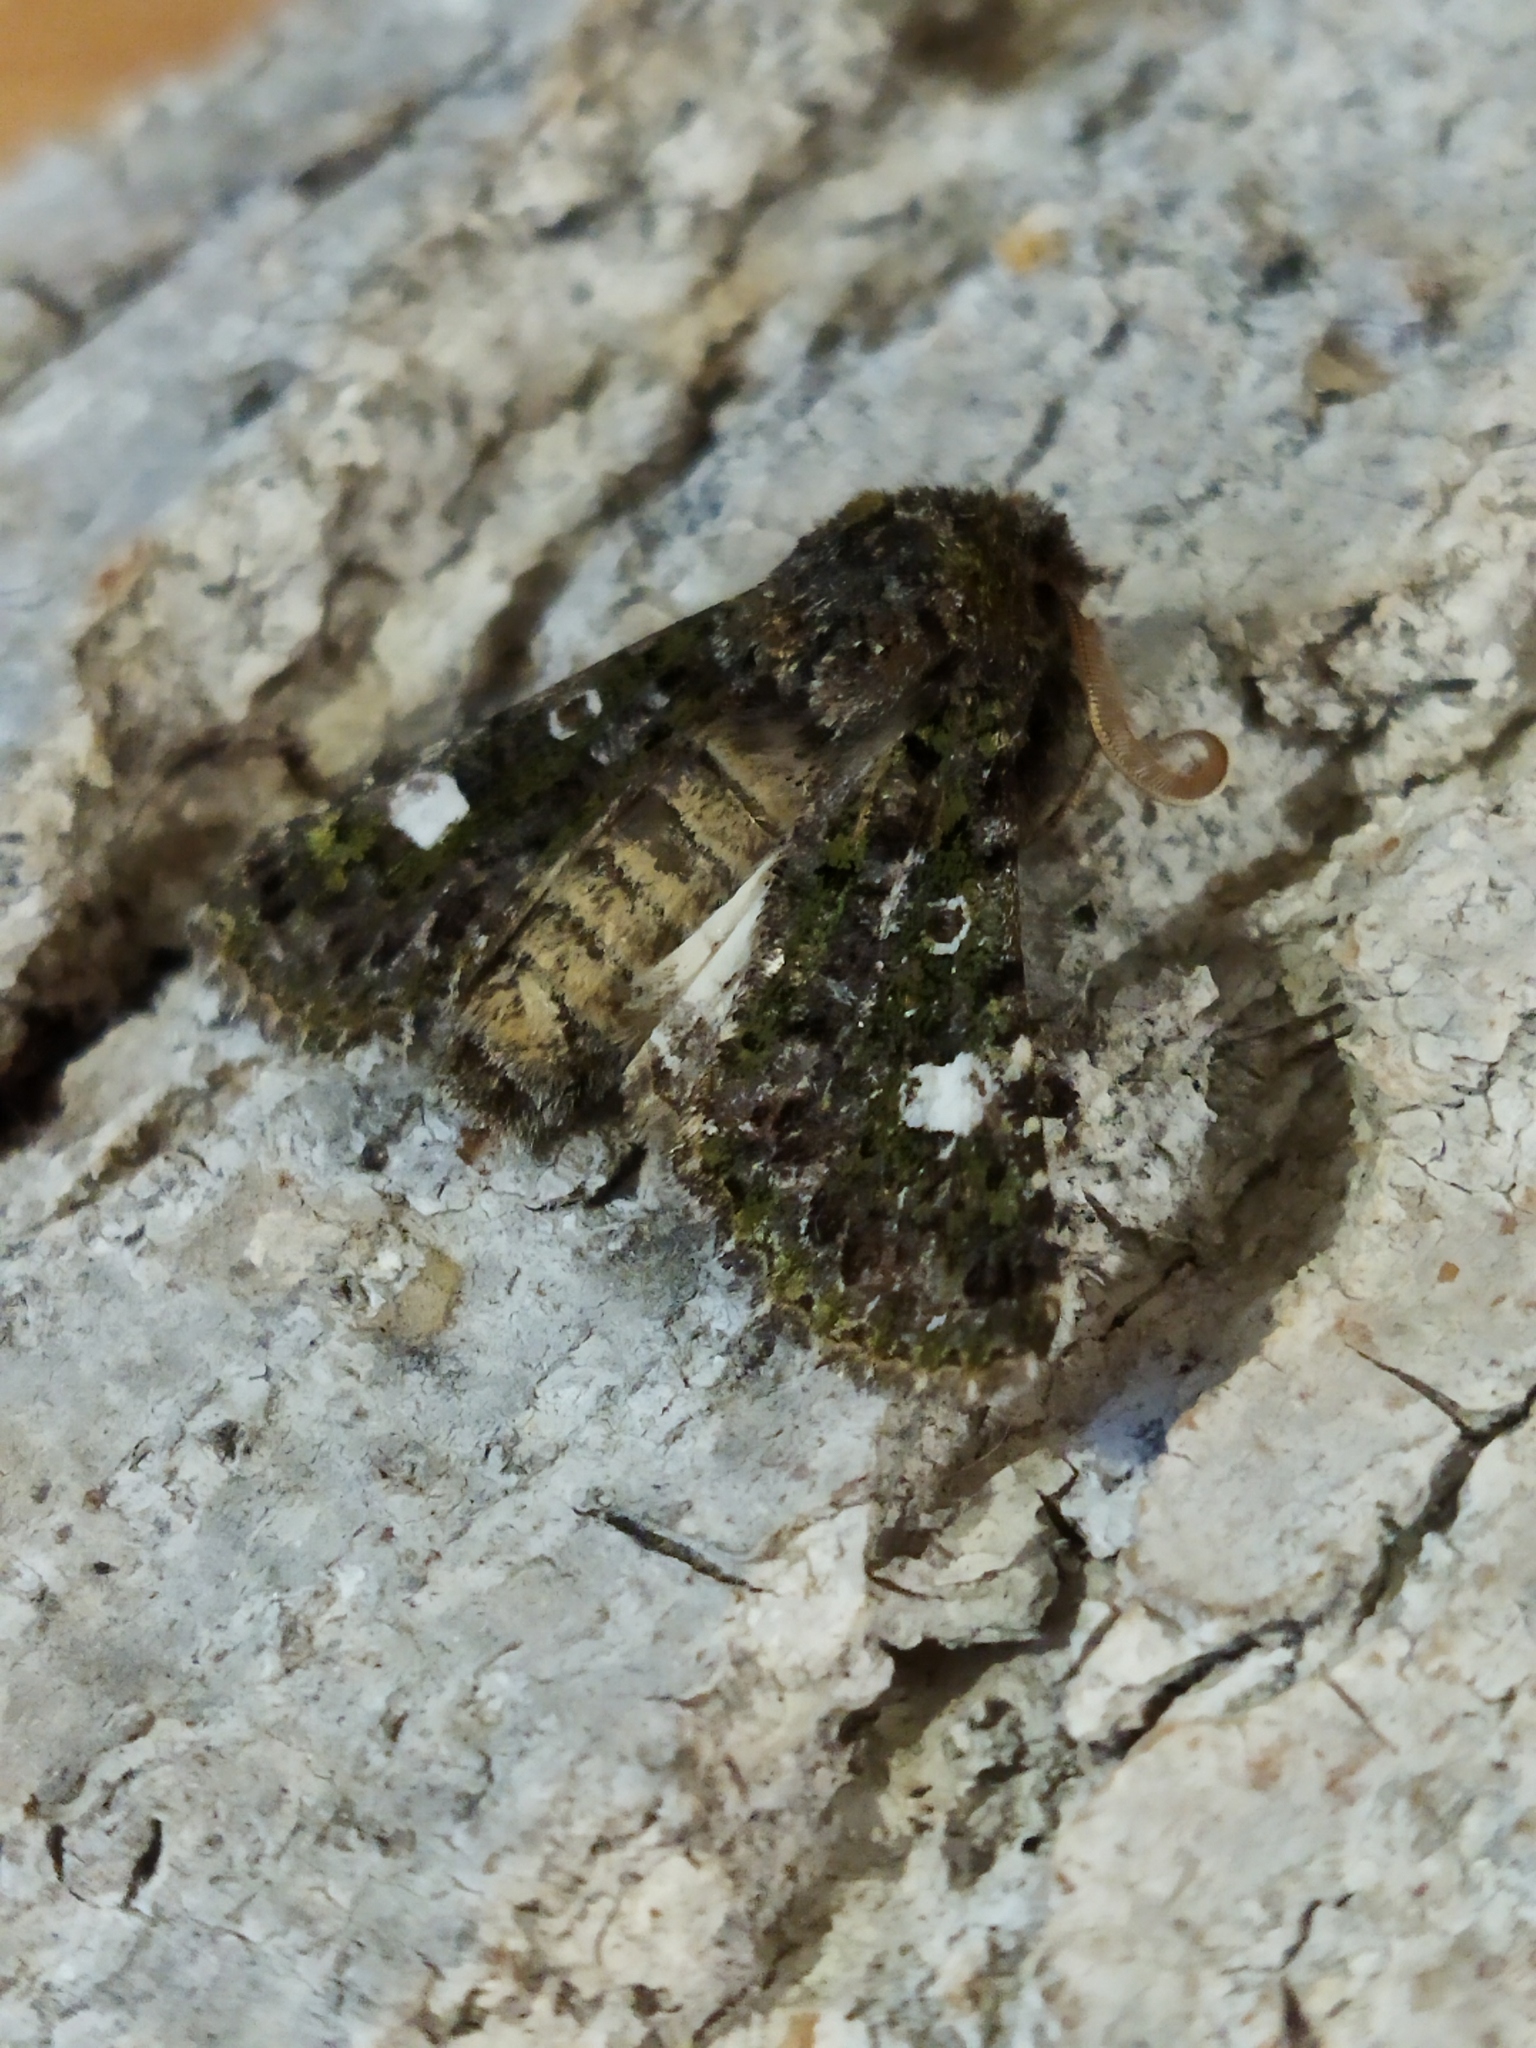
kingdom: Animalia
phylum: Arthropoda
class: Insecta
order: Lepidoptera
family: Noctuidae
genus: Valeria
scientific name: Valeria oleagina
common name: Green-brindled dot
